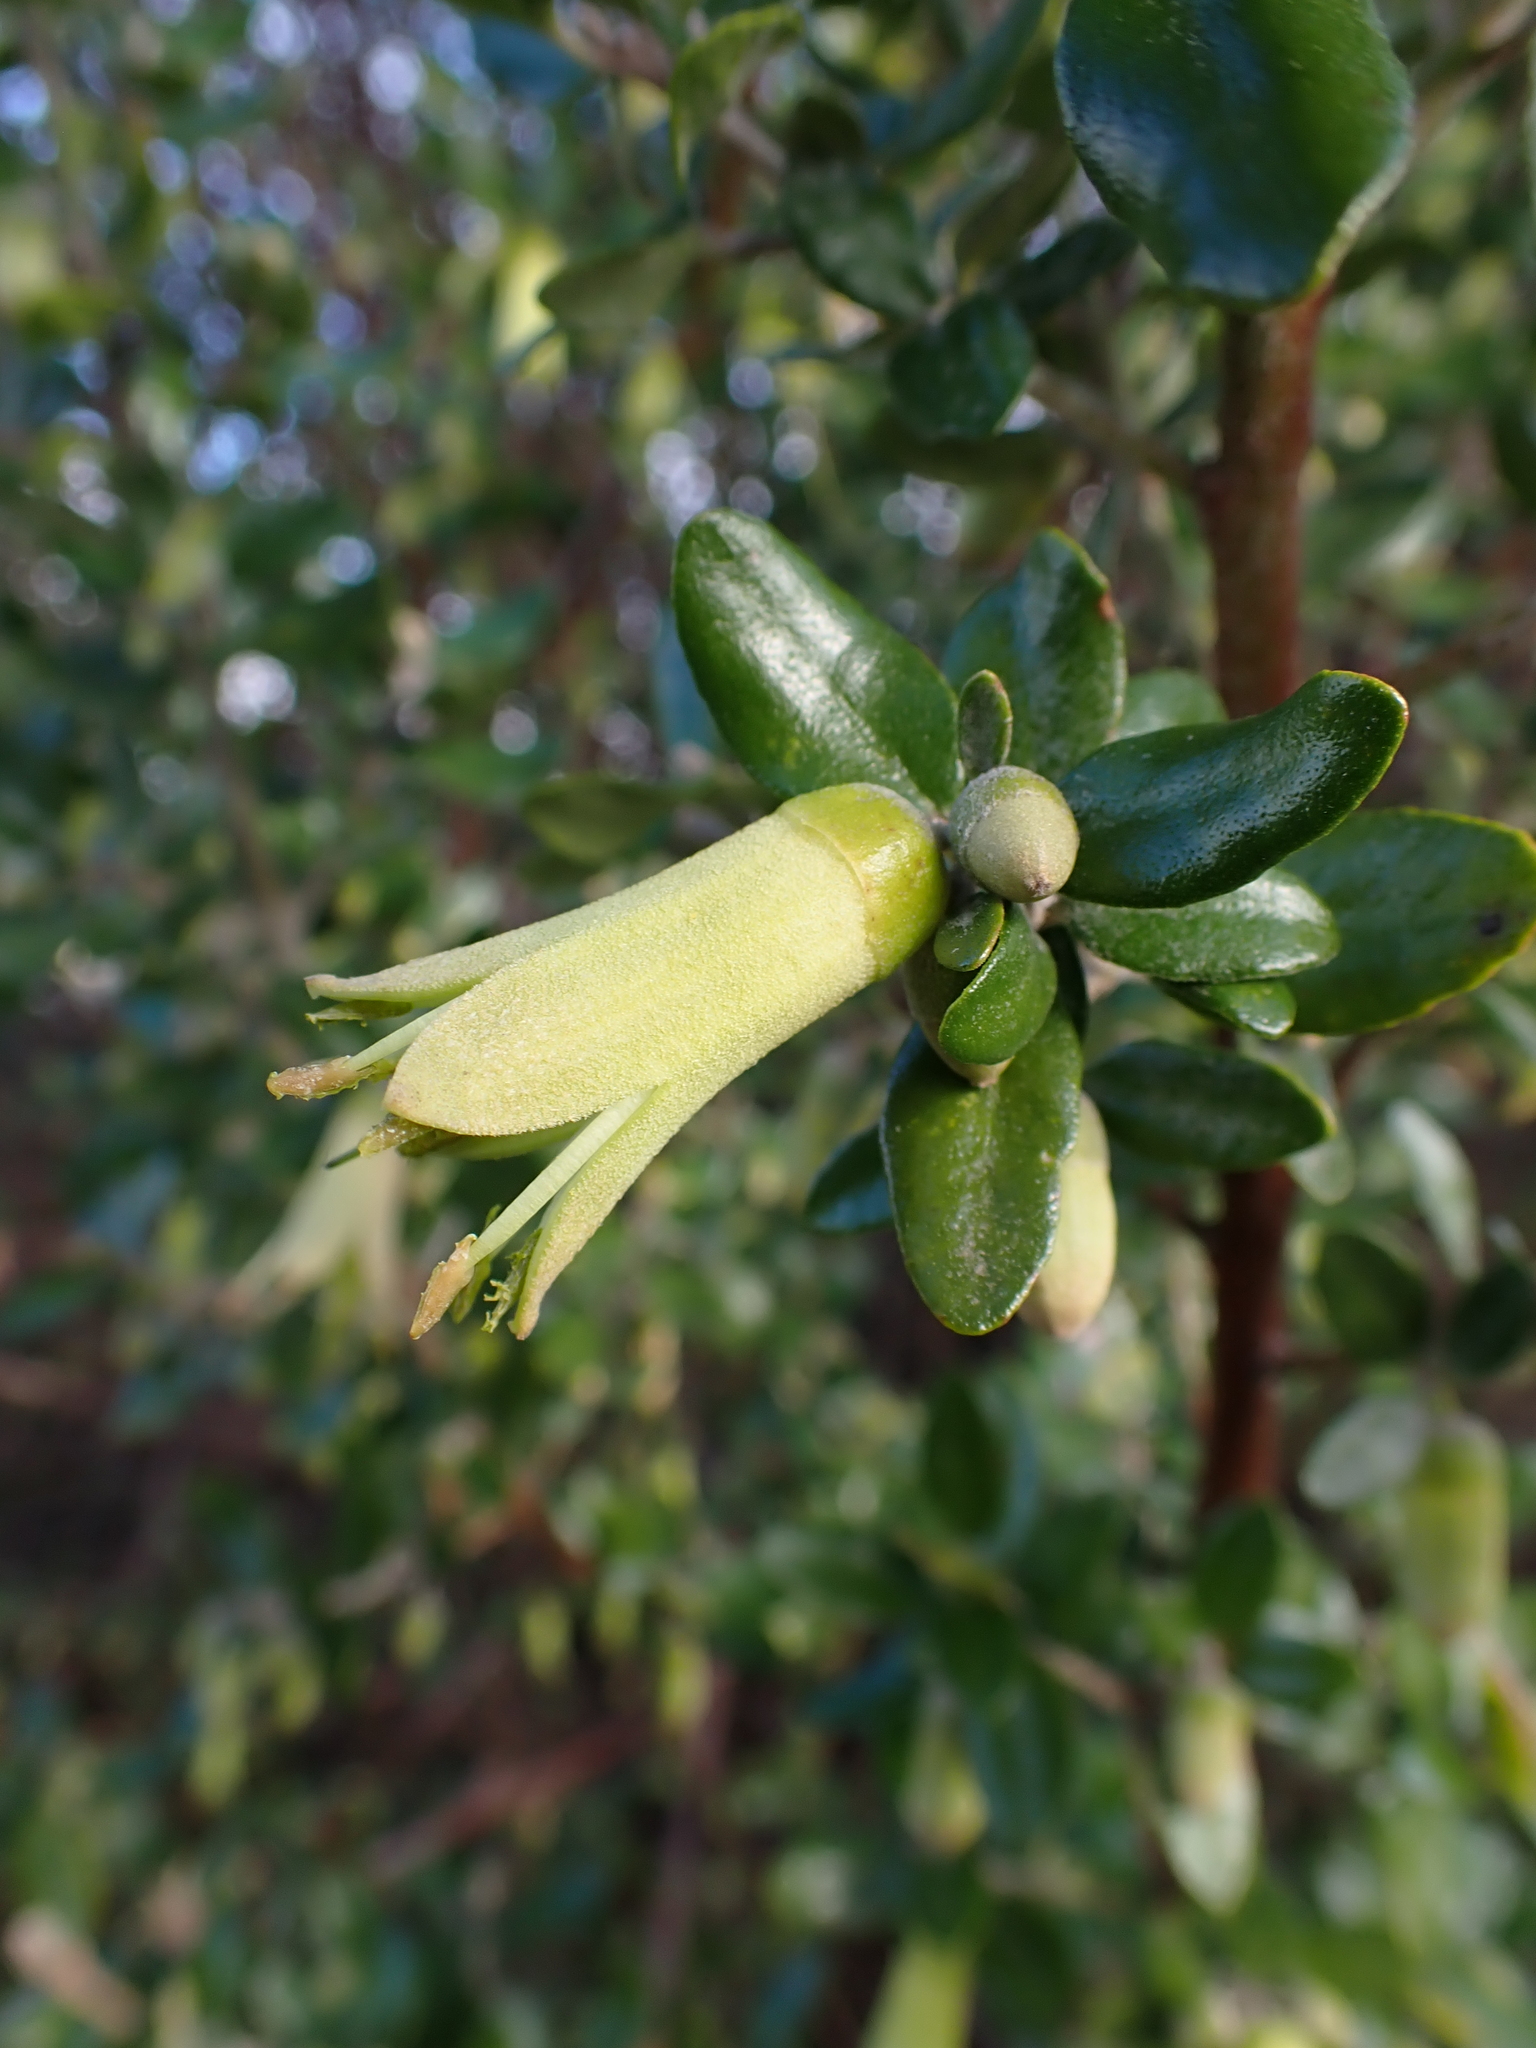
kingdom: Plantae
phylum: Tracheophyta
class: Magnoliopsida
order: Sapindales
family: Rutaceae
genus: Correa
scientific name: Correa glabra
